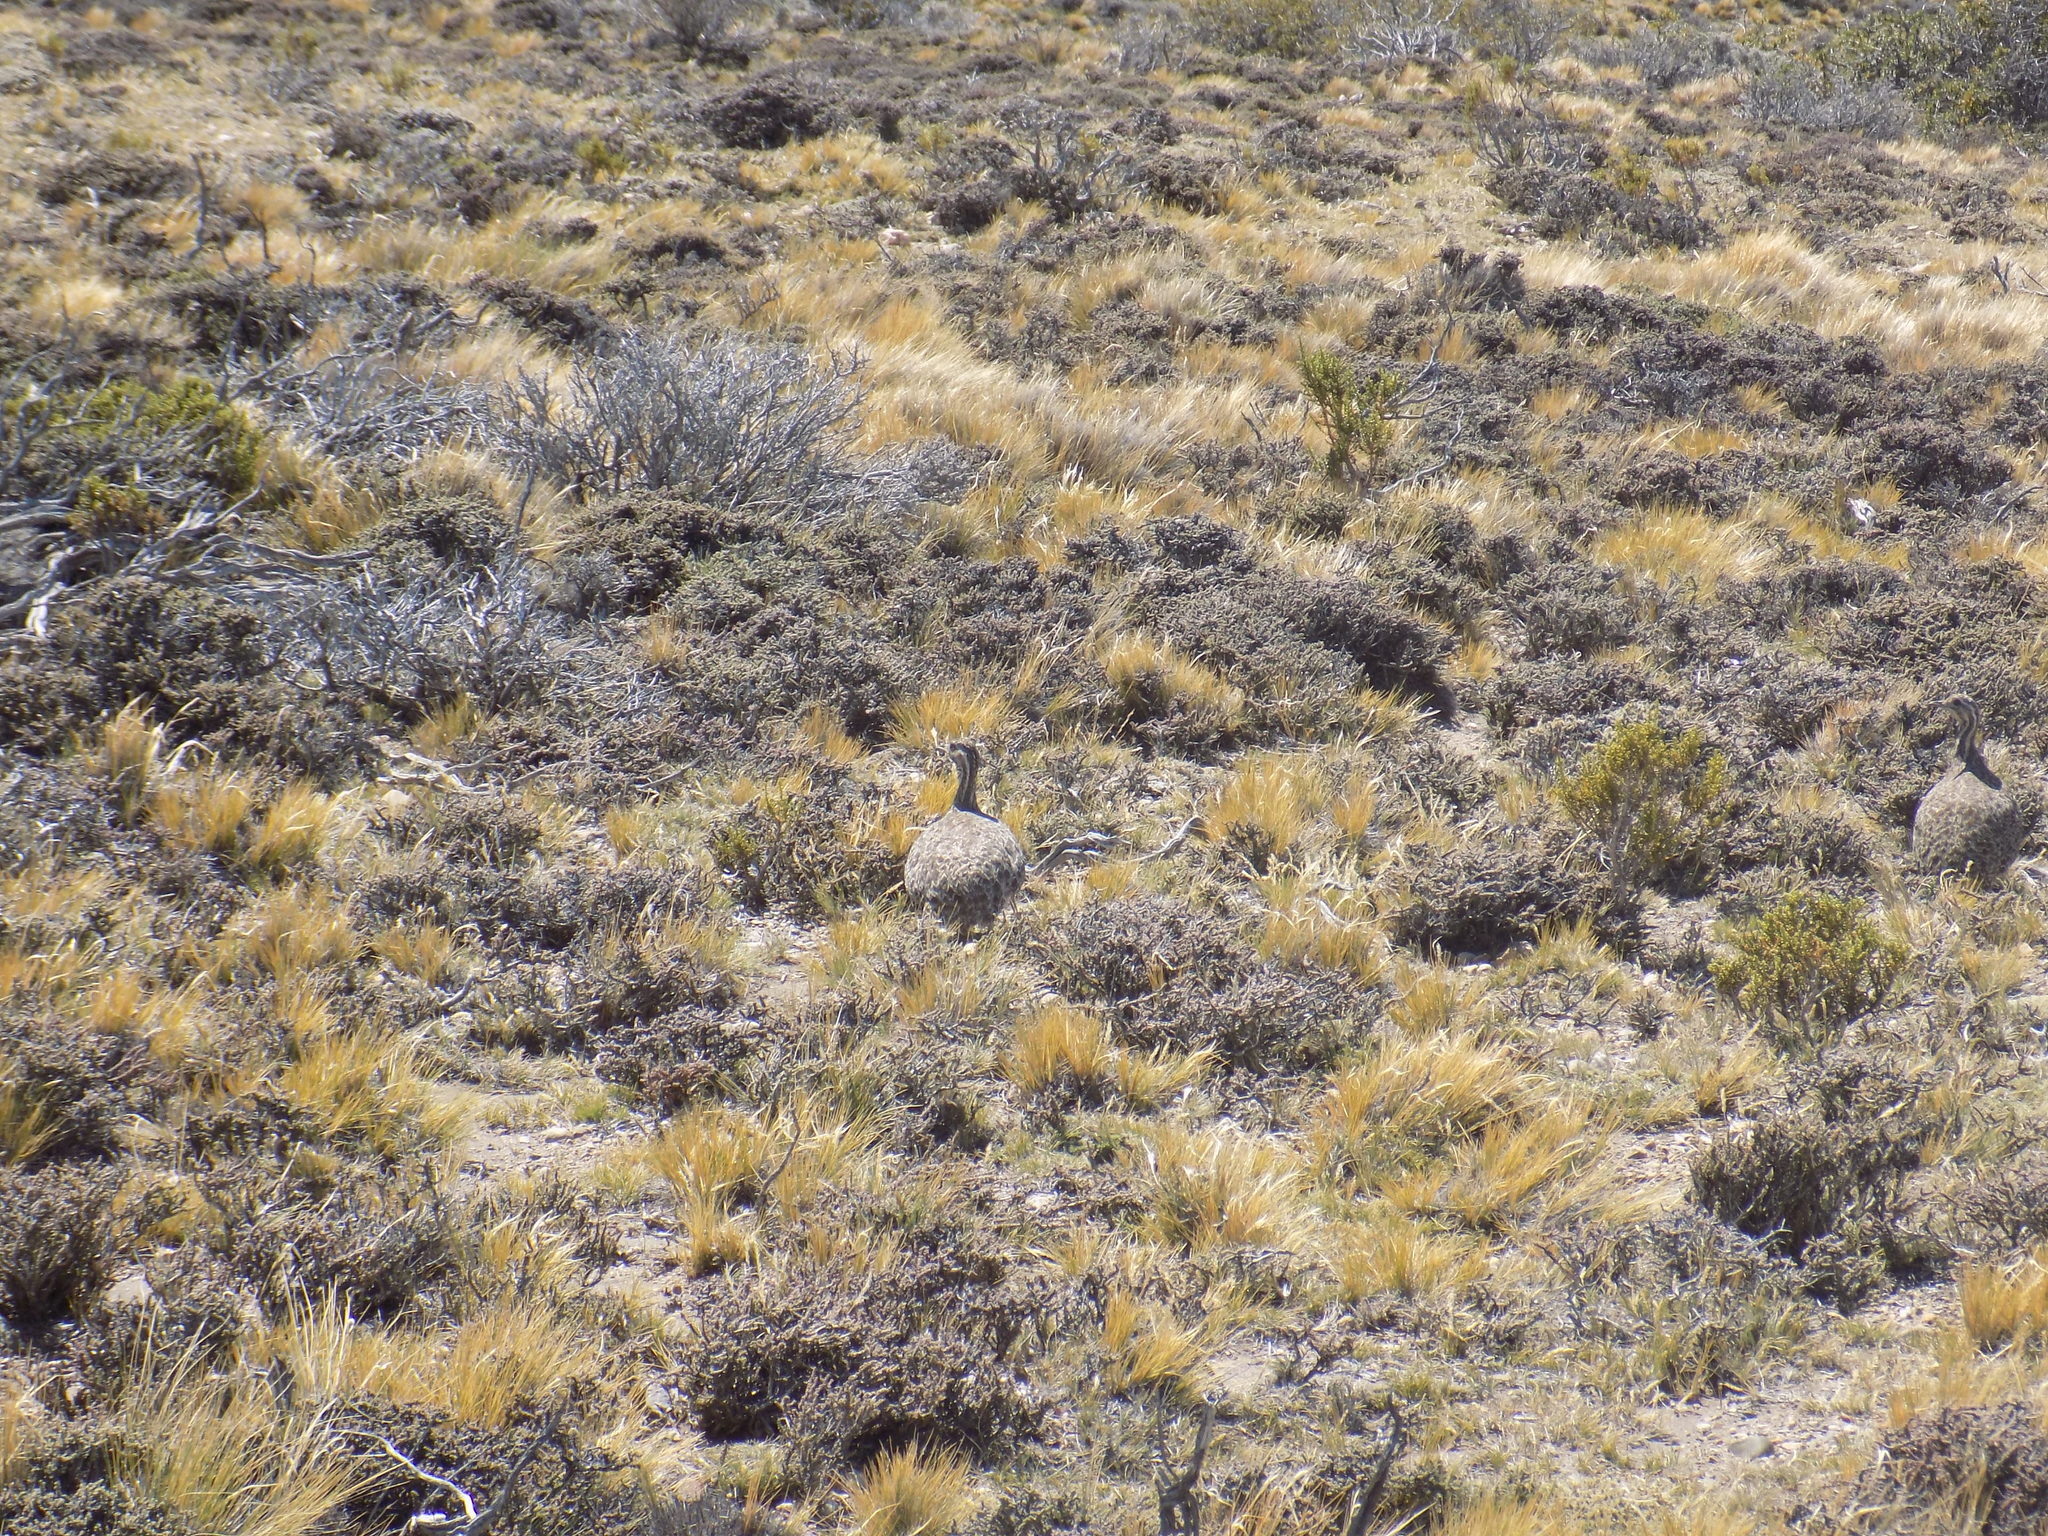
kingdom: Animalia
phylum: Chordata
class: Aves
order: Tinamiformes
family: Tinamidae
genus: Tinamotis
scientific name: Tinamotis ingoufi
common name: Patagonian tinamou
